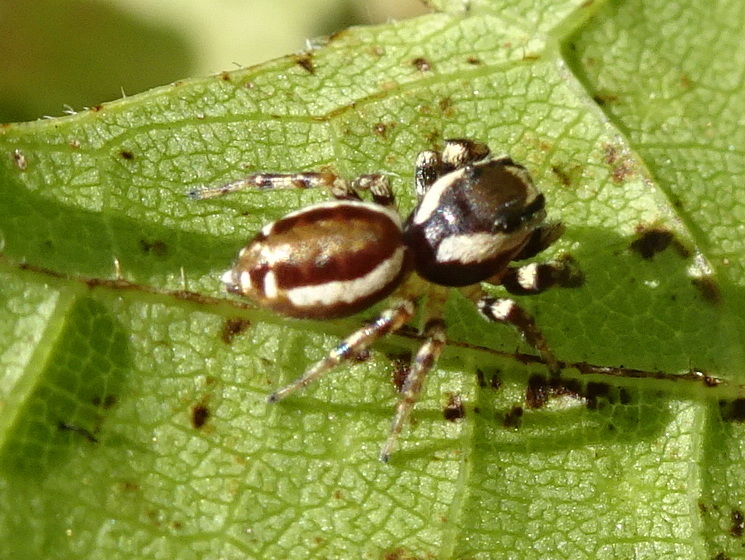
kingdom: Animalia
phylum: Arthropoda
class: Arachnida
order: Araneae
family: Salticidae
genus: Pelegrina
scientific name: Pelegrina proterva
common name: Common white-cheeked jumping spider
